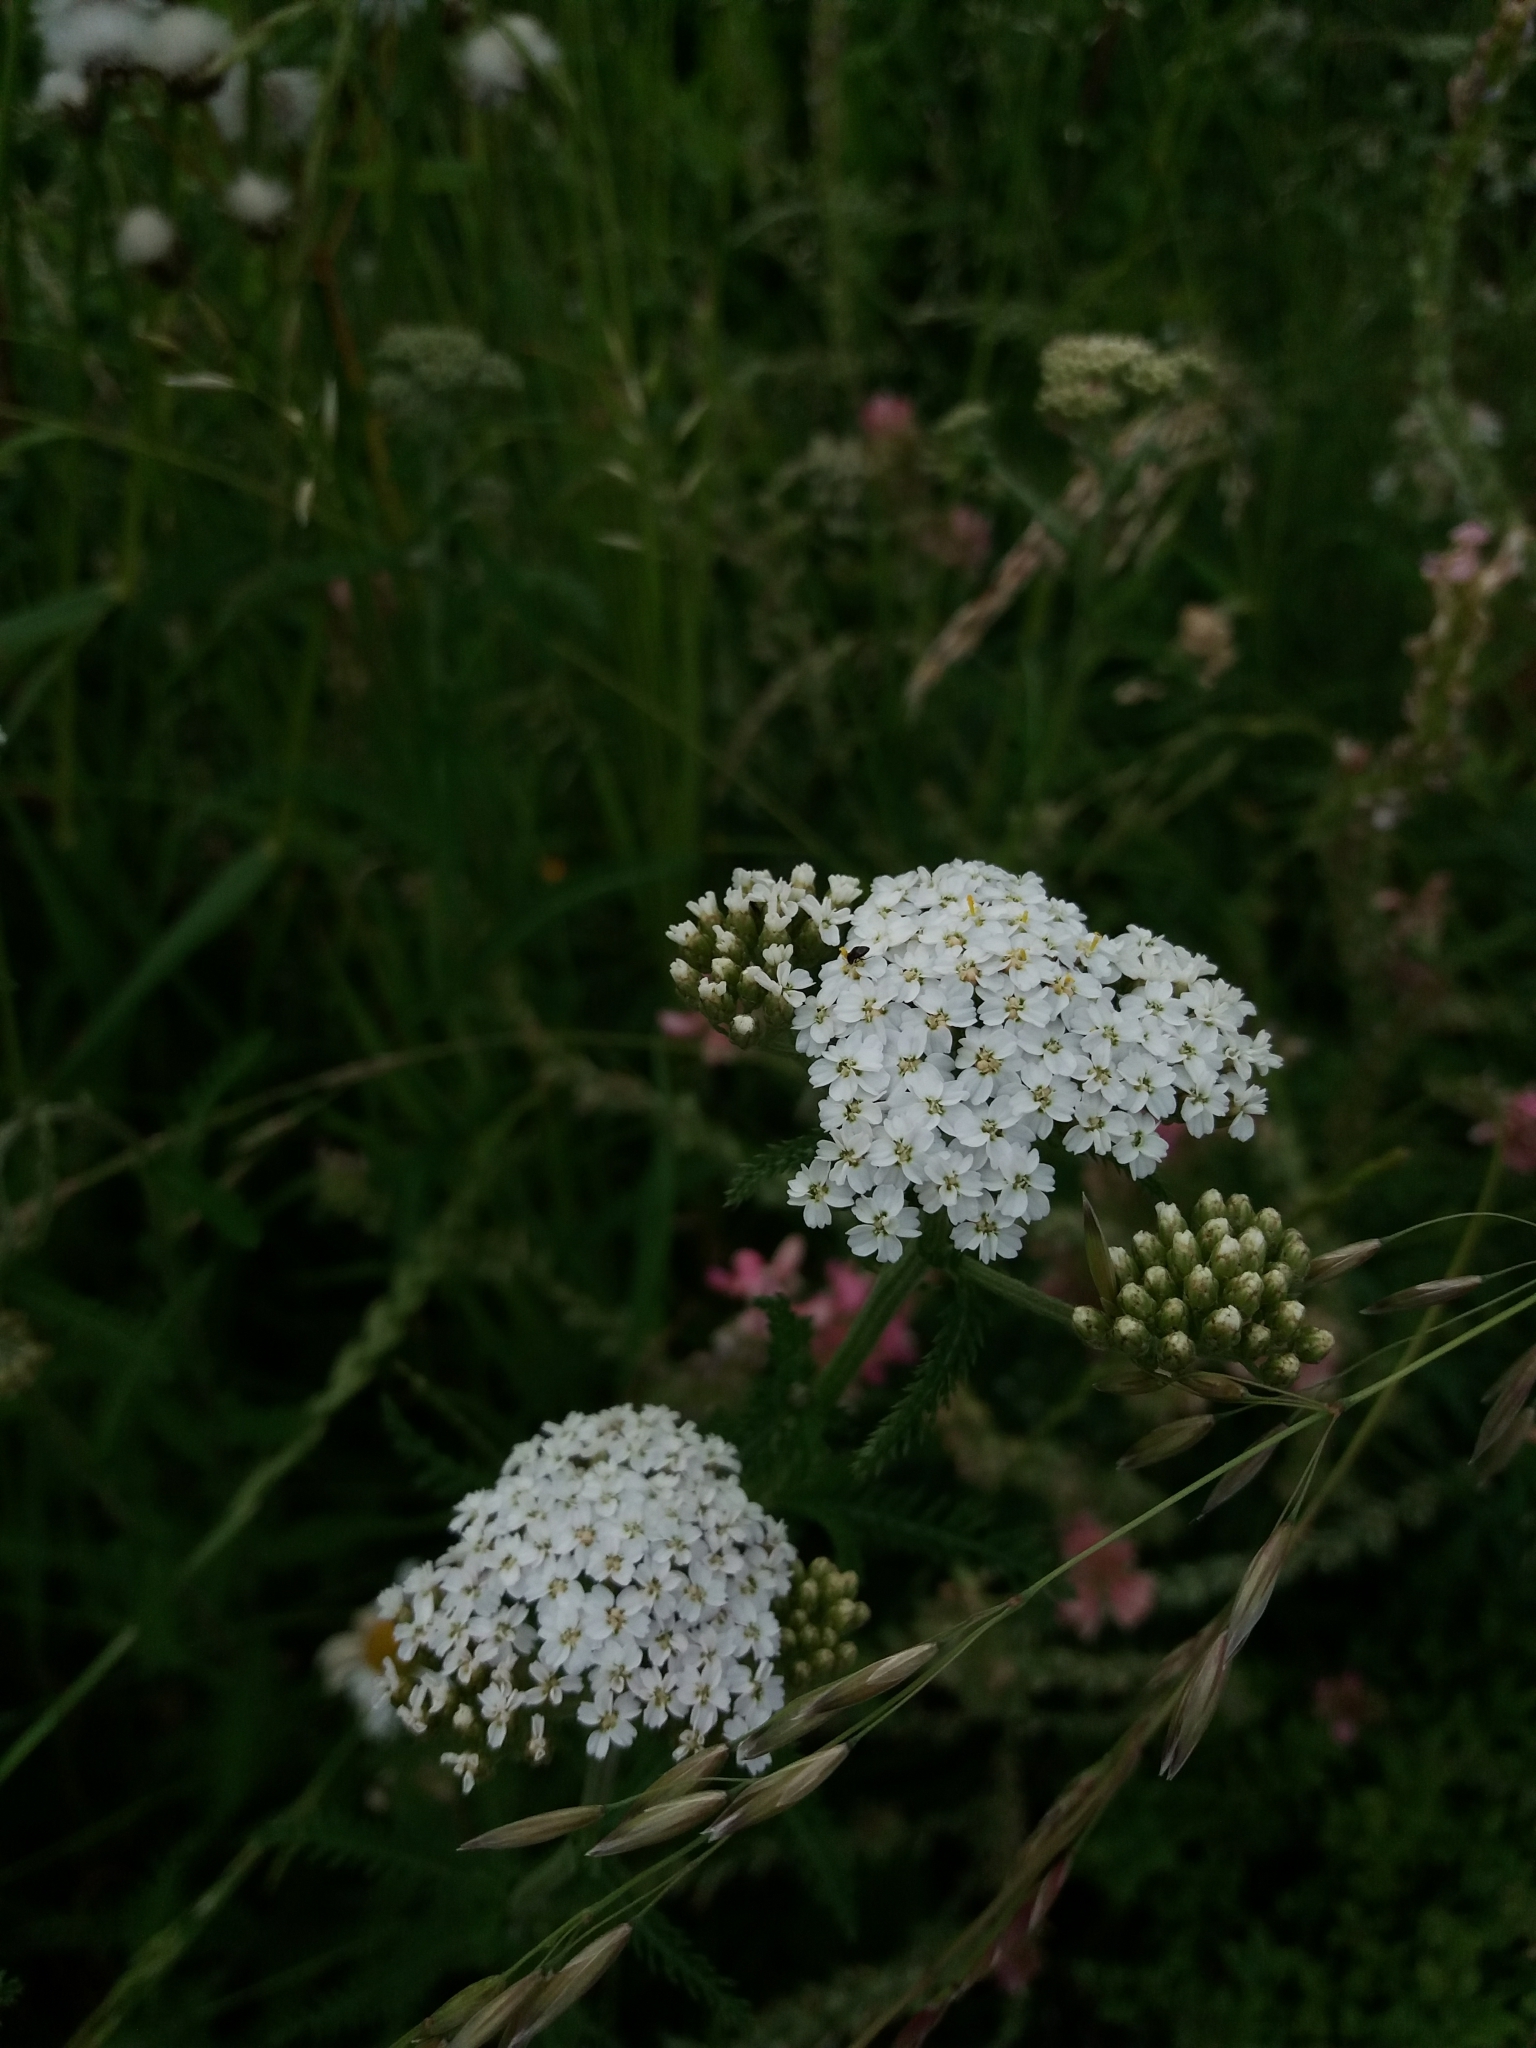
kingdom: Plantae
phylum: Tracheophyta
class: Magnoliopsida
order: Asterales
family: Asteraceae
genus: Achillea
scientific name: Achillea millefolium
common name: Yarrow
